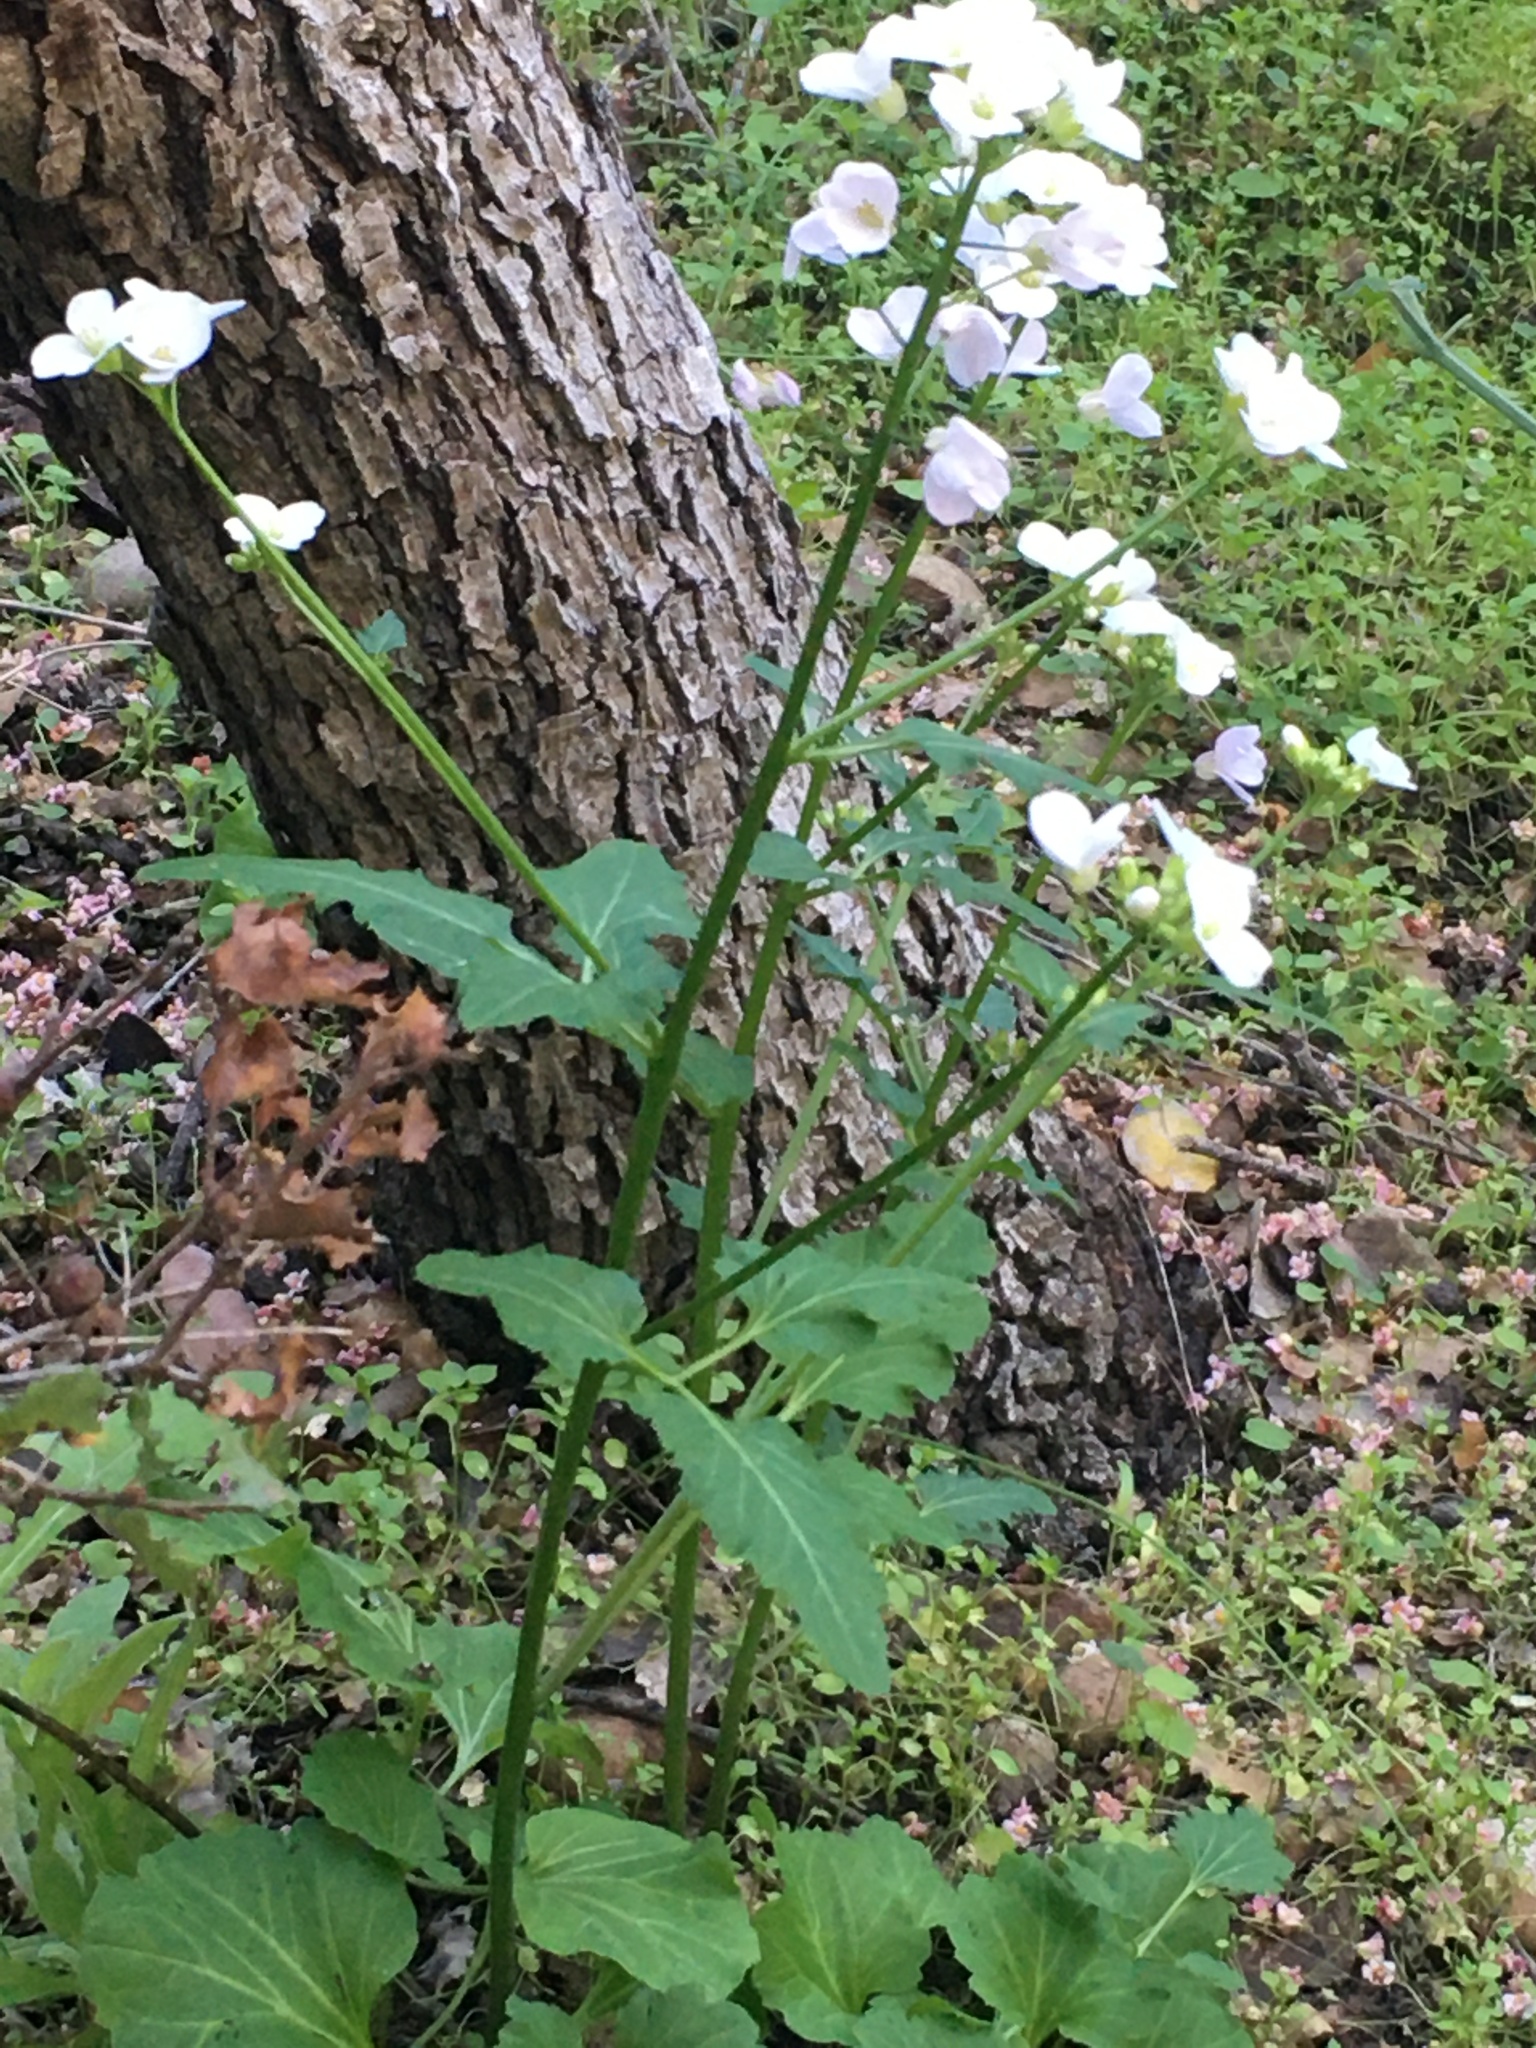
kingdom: Plantae
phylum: Tracheophyta
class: Magnoliopsida
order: Brassicales
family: Brassicaceae
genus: Cardamine
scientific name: Cardamine californica
